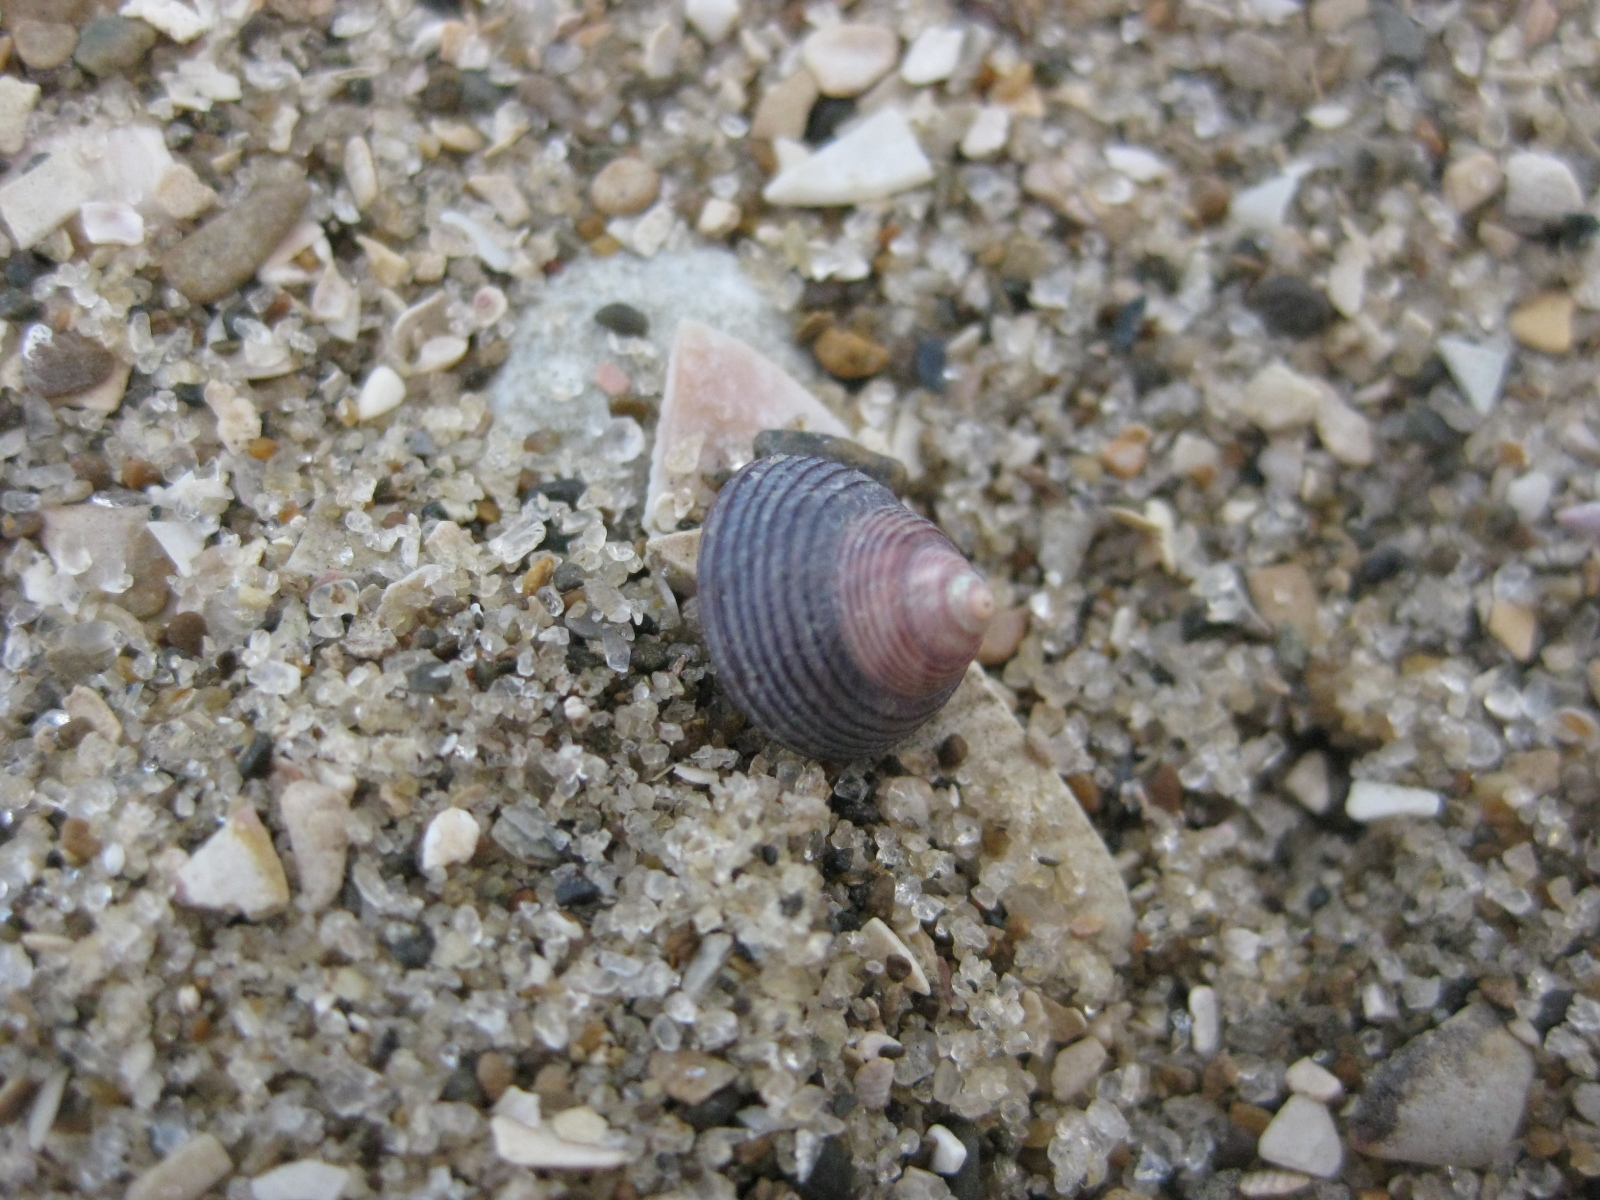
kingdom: Animalia
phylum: Mollusca
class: Gastropoda
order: Trochida
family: Trochidae
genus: Micrelenchus
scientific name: Micrelenchus huttonii
